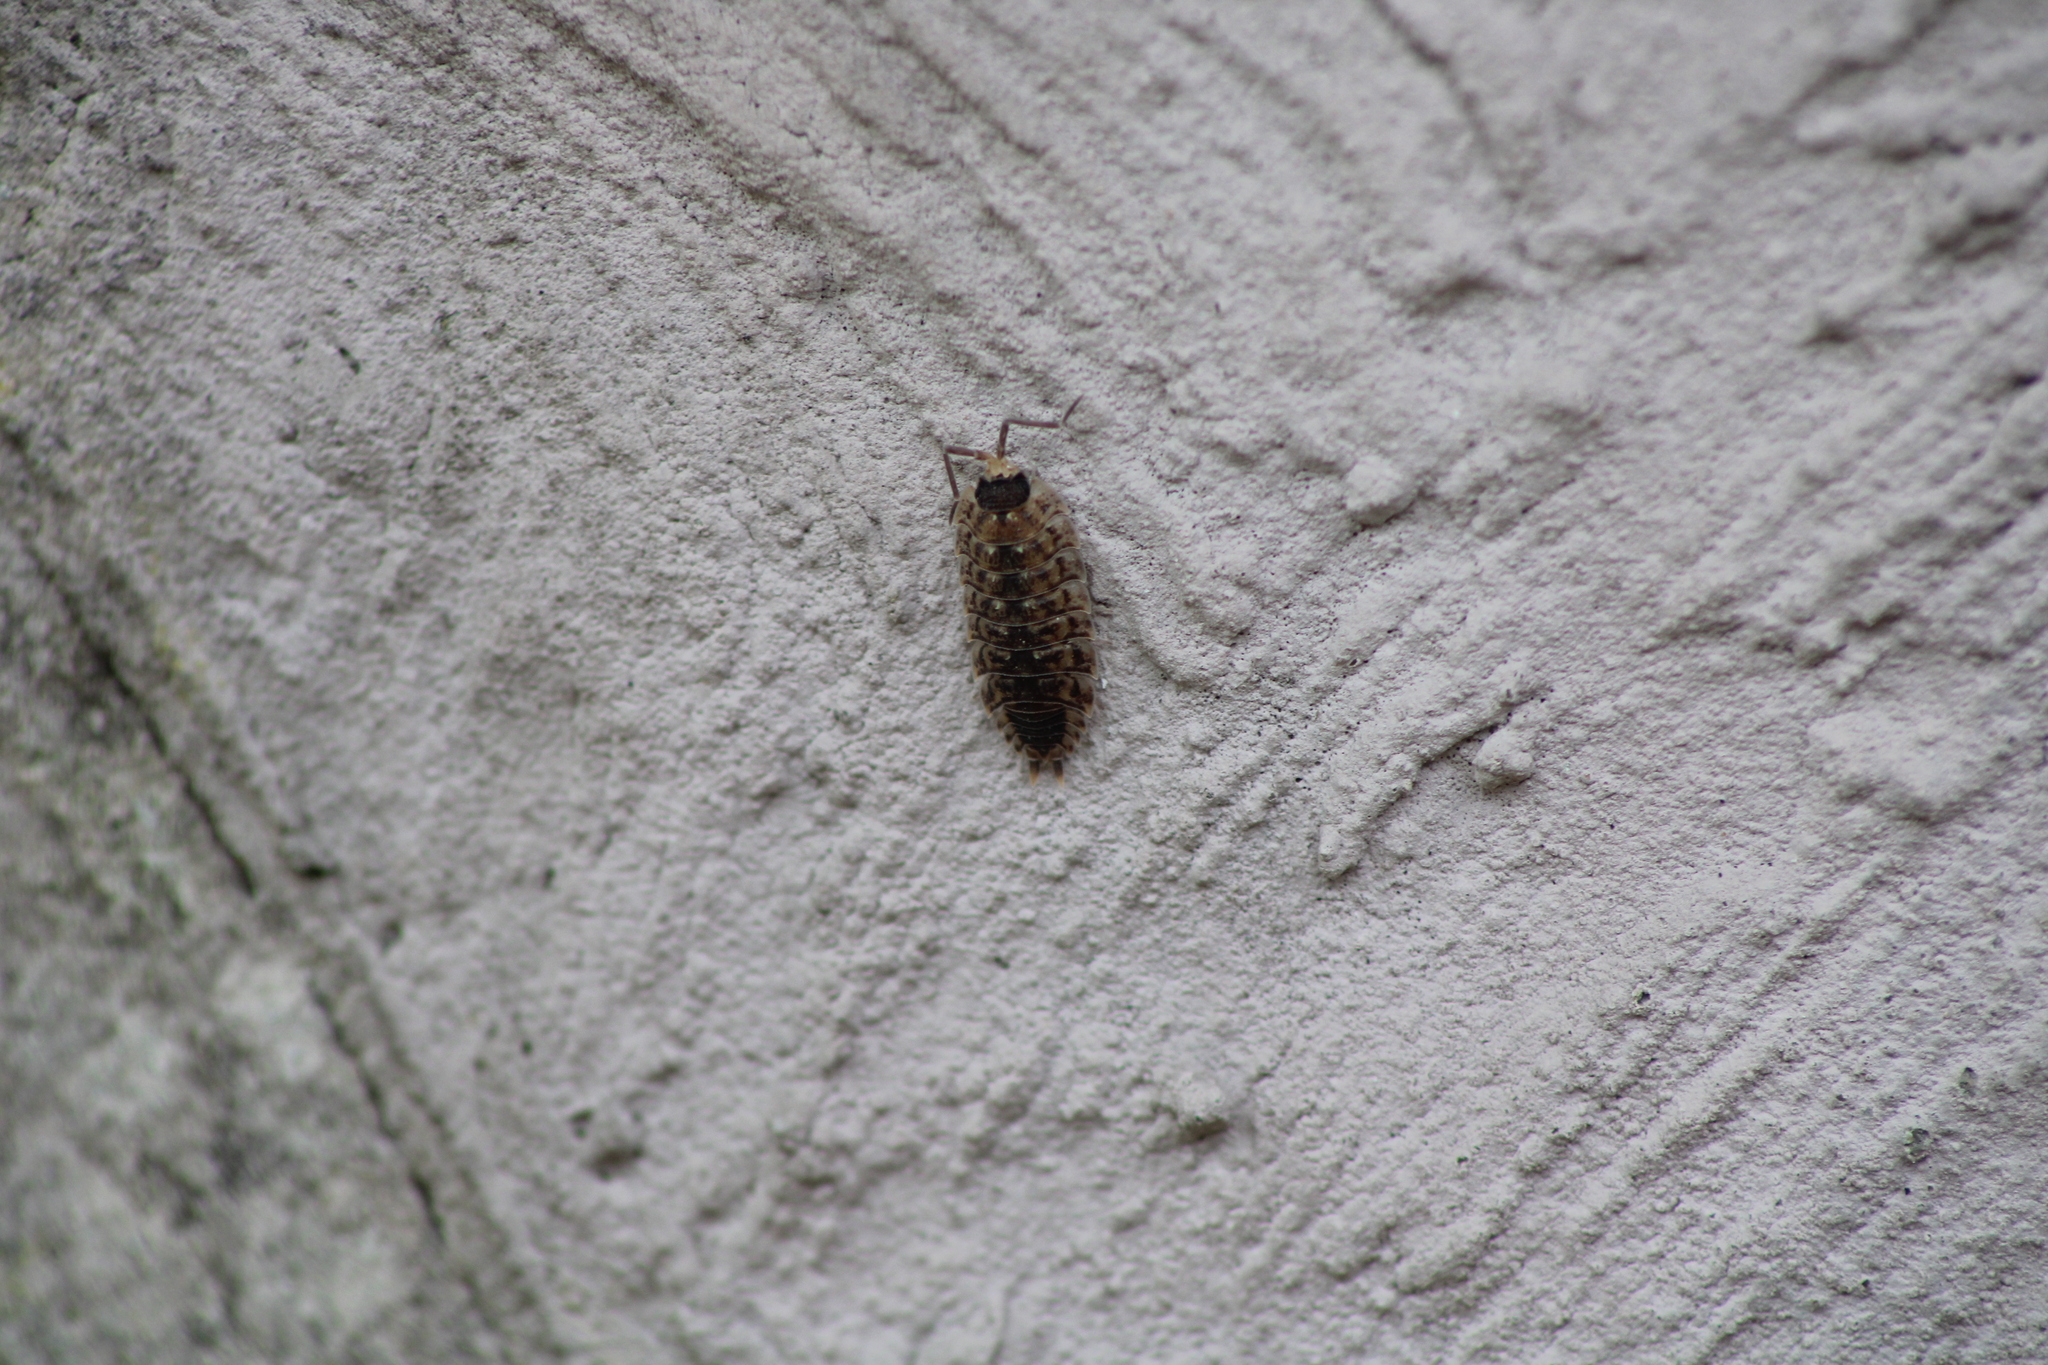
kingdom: Animalia
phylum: Arthropoda
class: Malacostraca
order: Isopoda
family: Porcellionidae
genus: Porcellio
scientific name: Porcellio spinicornis
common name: Painted woodlouse
